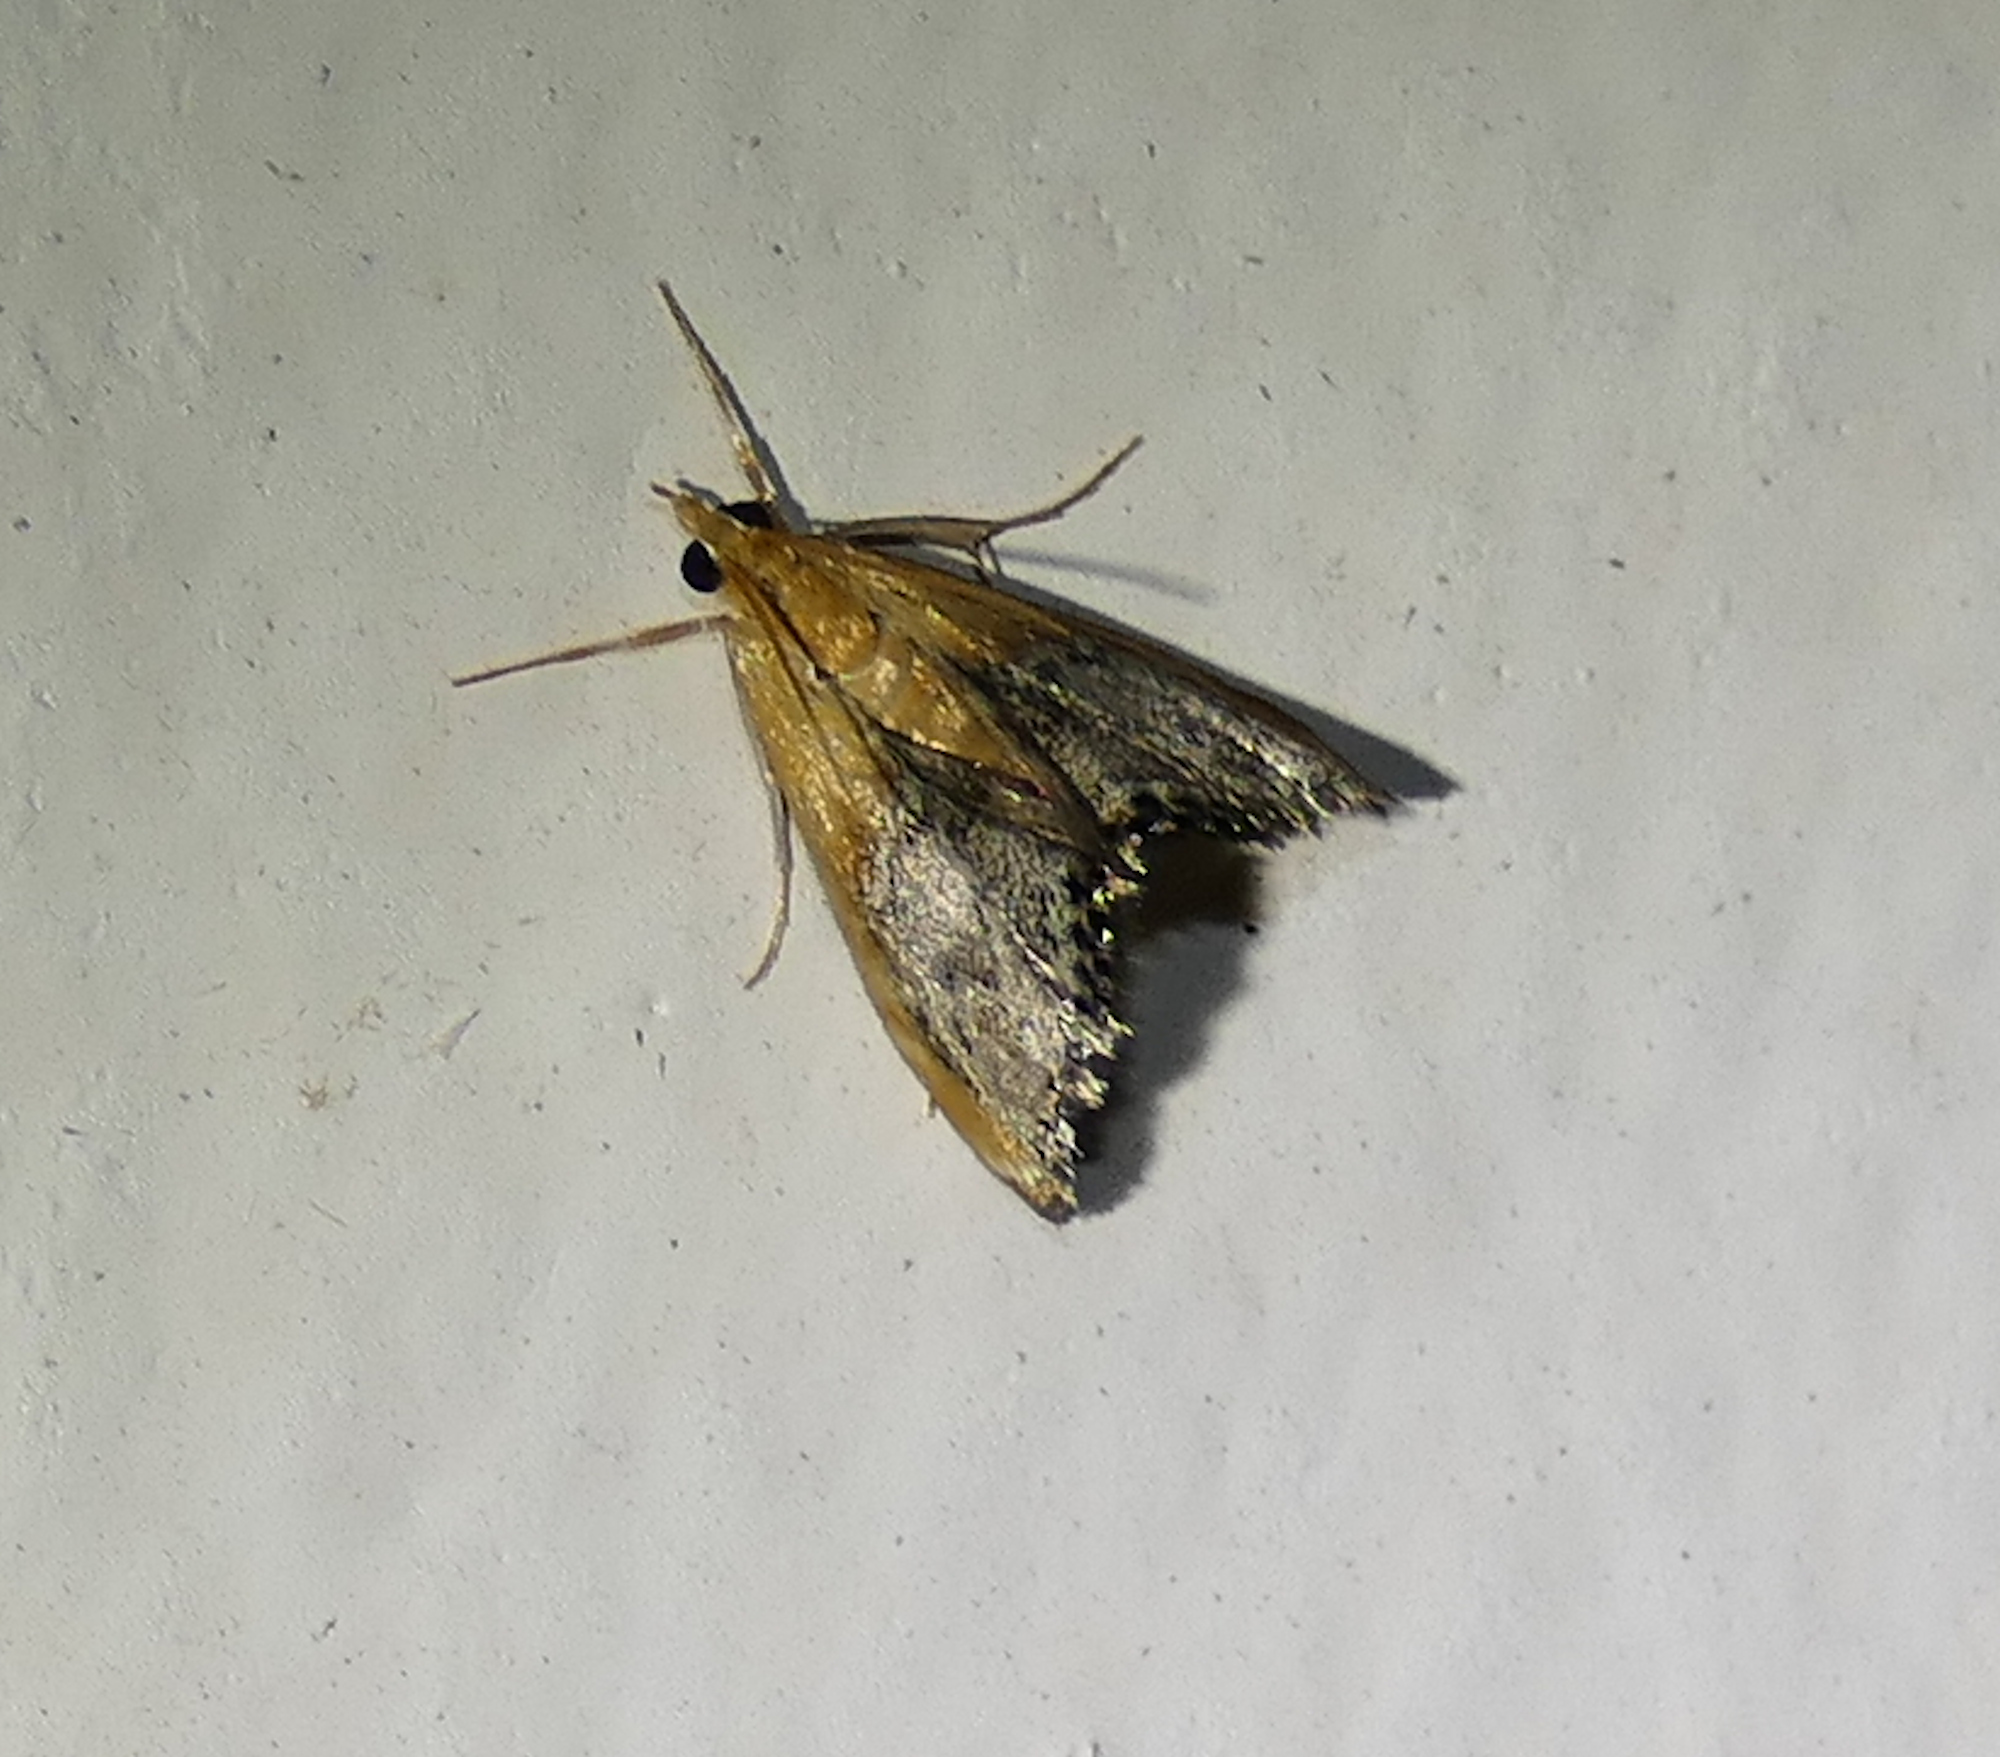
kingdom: Animalia
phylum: Arthropoda
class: Insecta
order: Lepidoptera
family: Crambidae
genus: Chalcoela
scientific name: Chalcoela iphitalis
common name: Sooty-winged chalcoela moth
